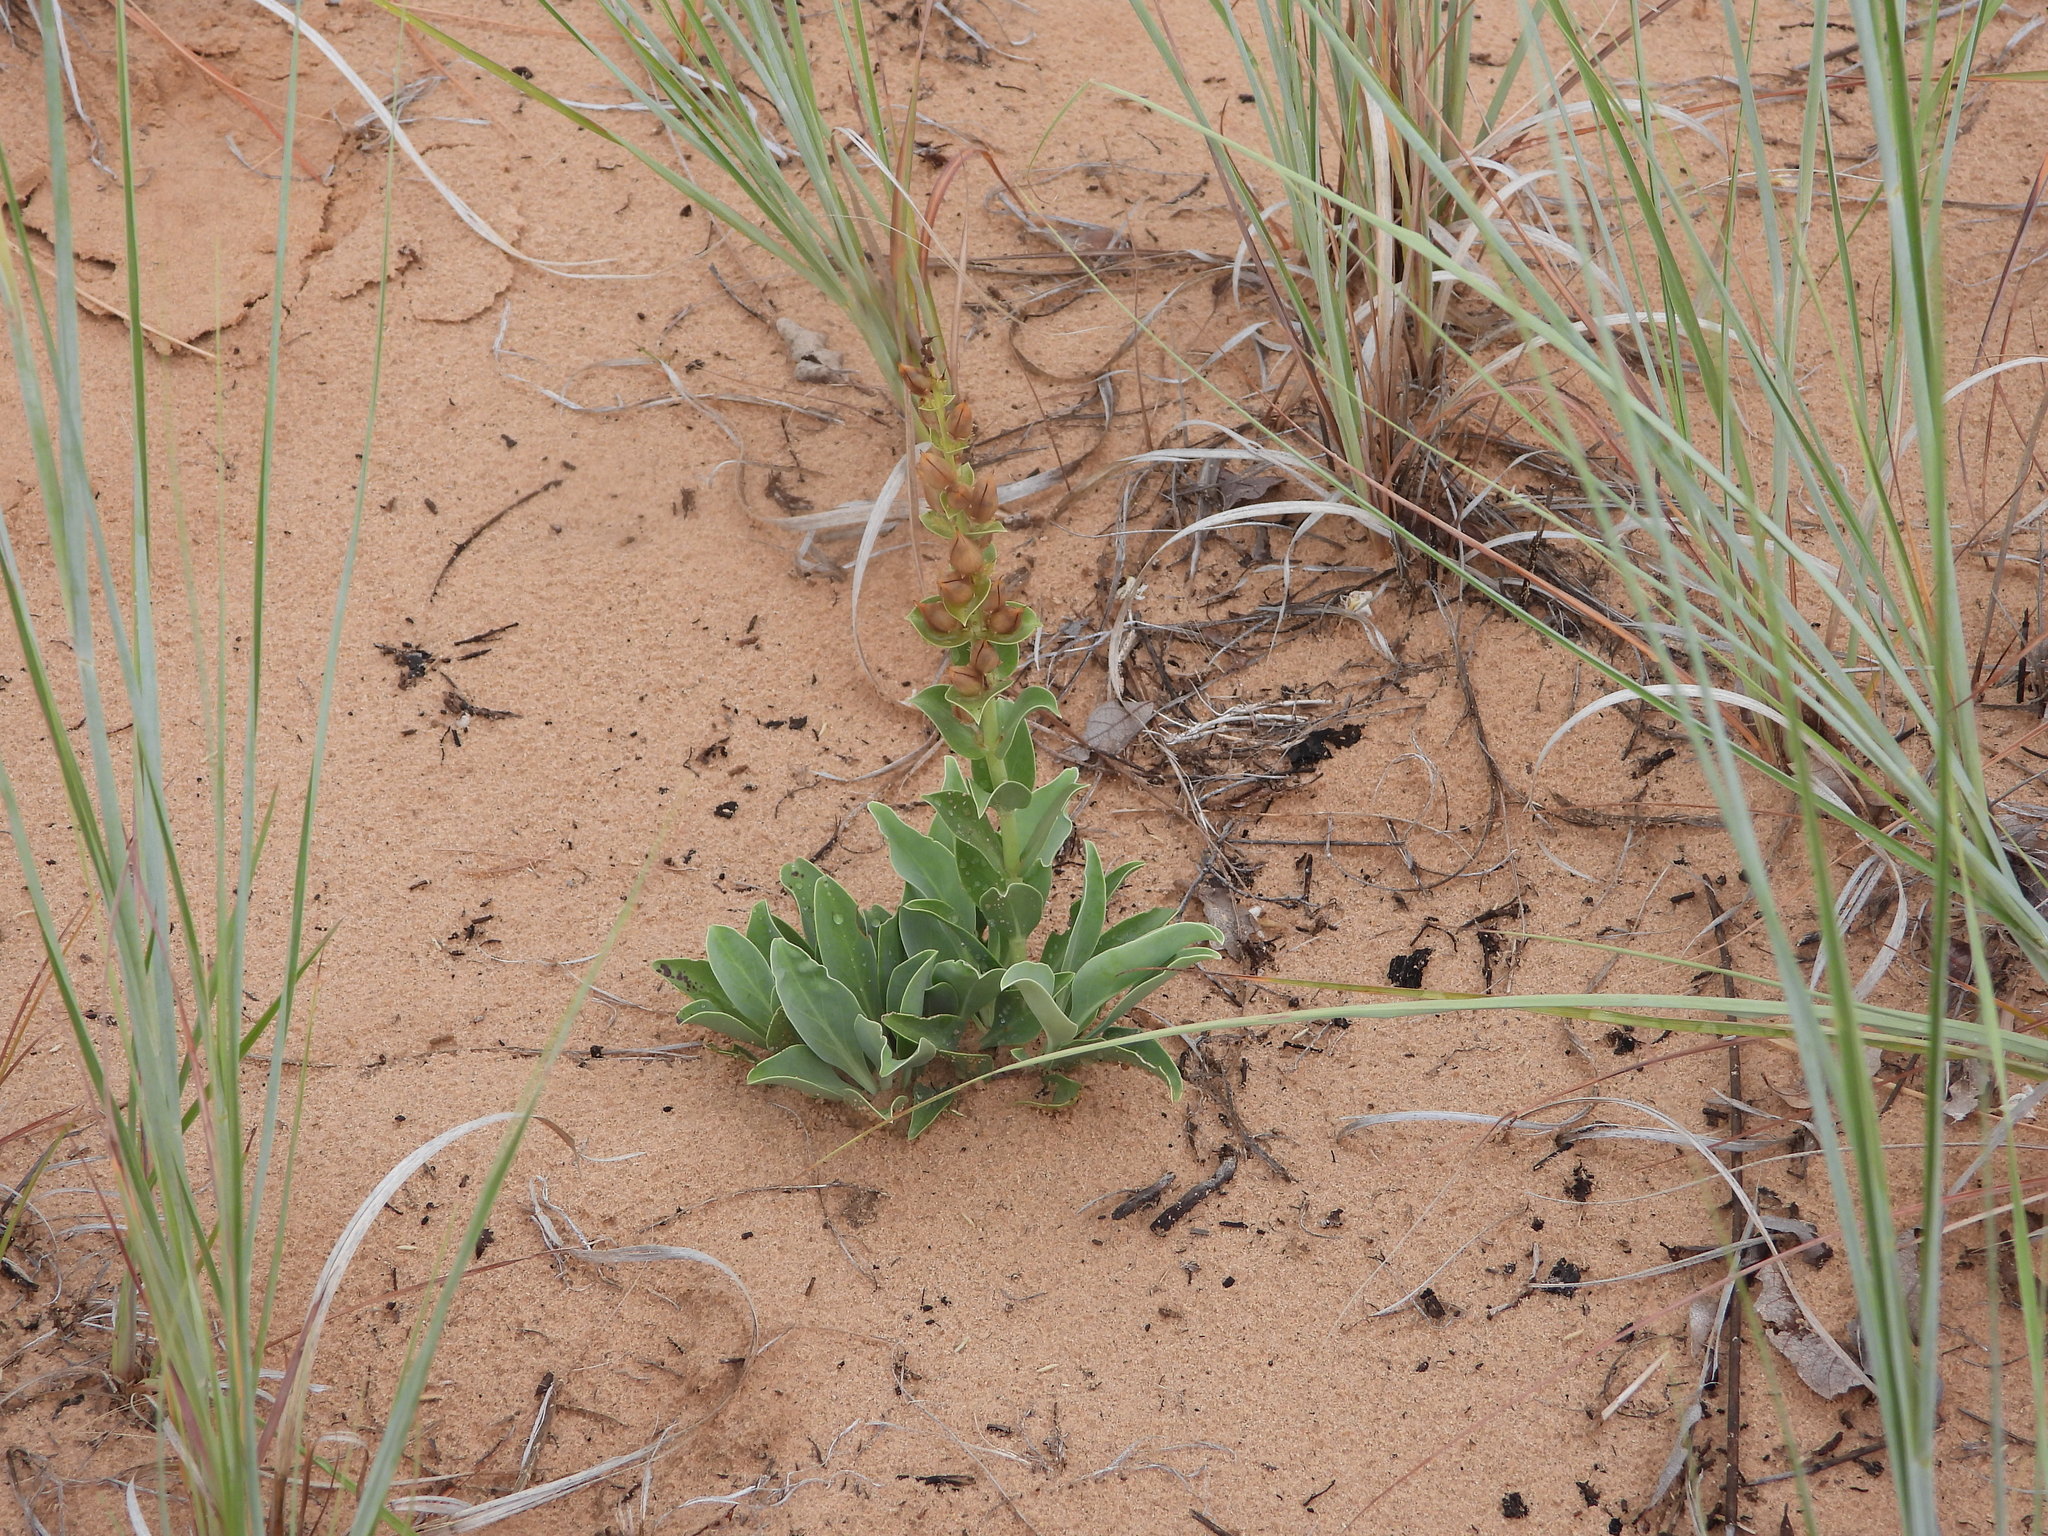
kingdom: Plantae
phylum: Tracheophyta
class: Magnoliopsida
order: Lamiales
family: Plantaginaceae
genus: Penstemon
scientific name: Penstemon buckleyi
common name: Buckley's penstemon
